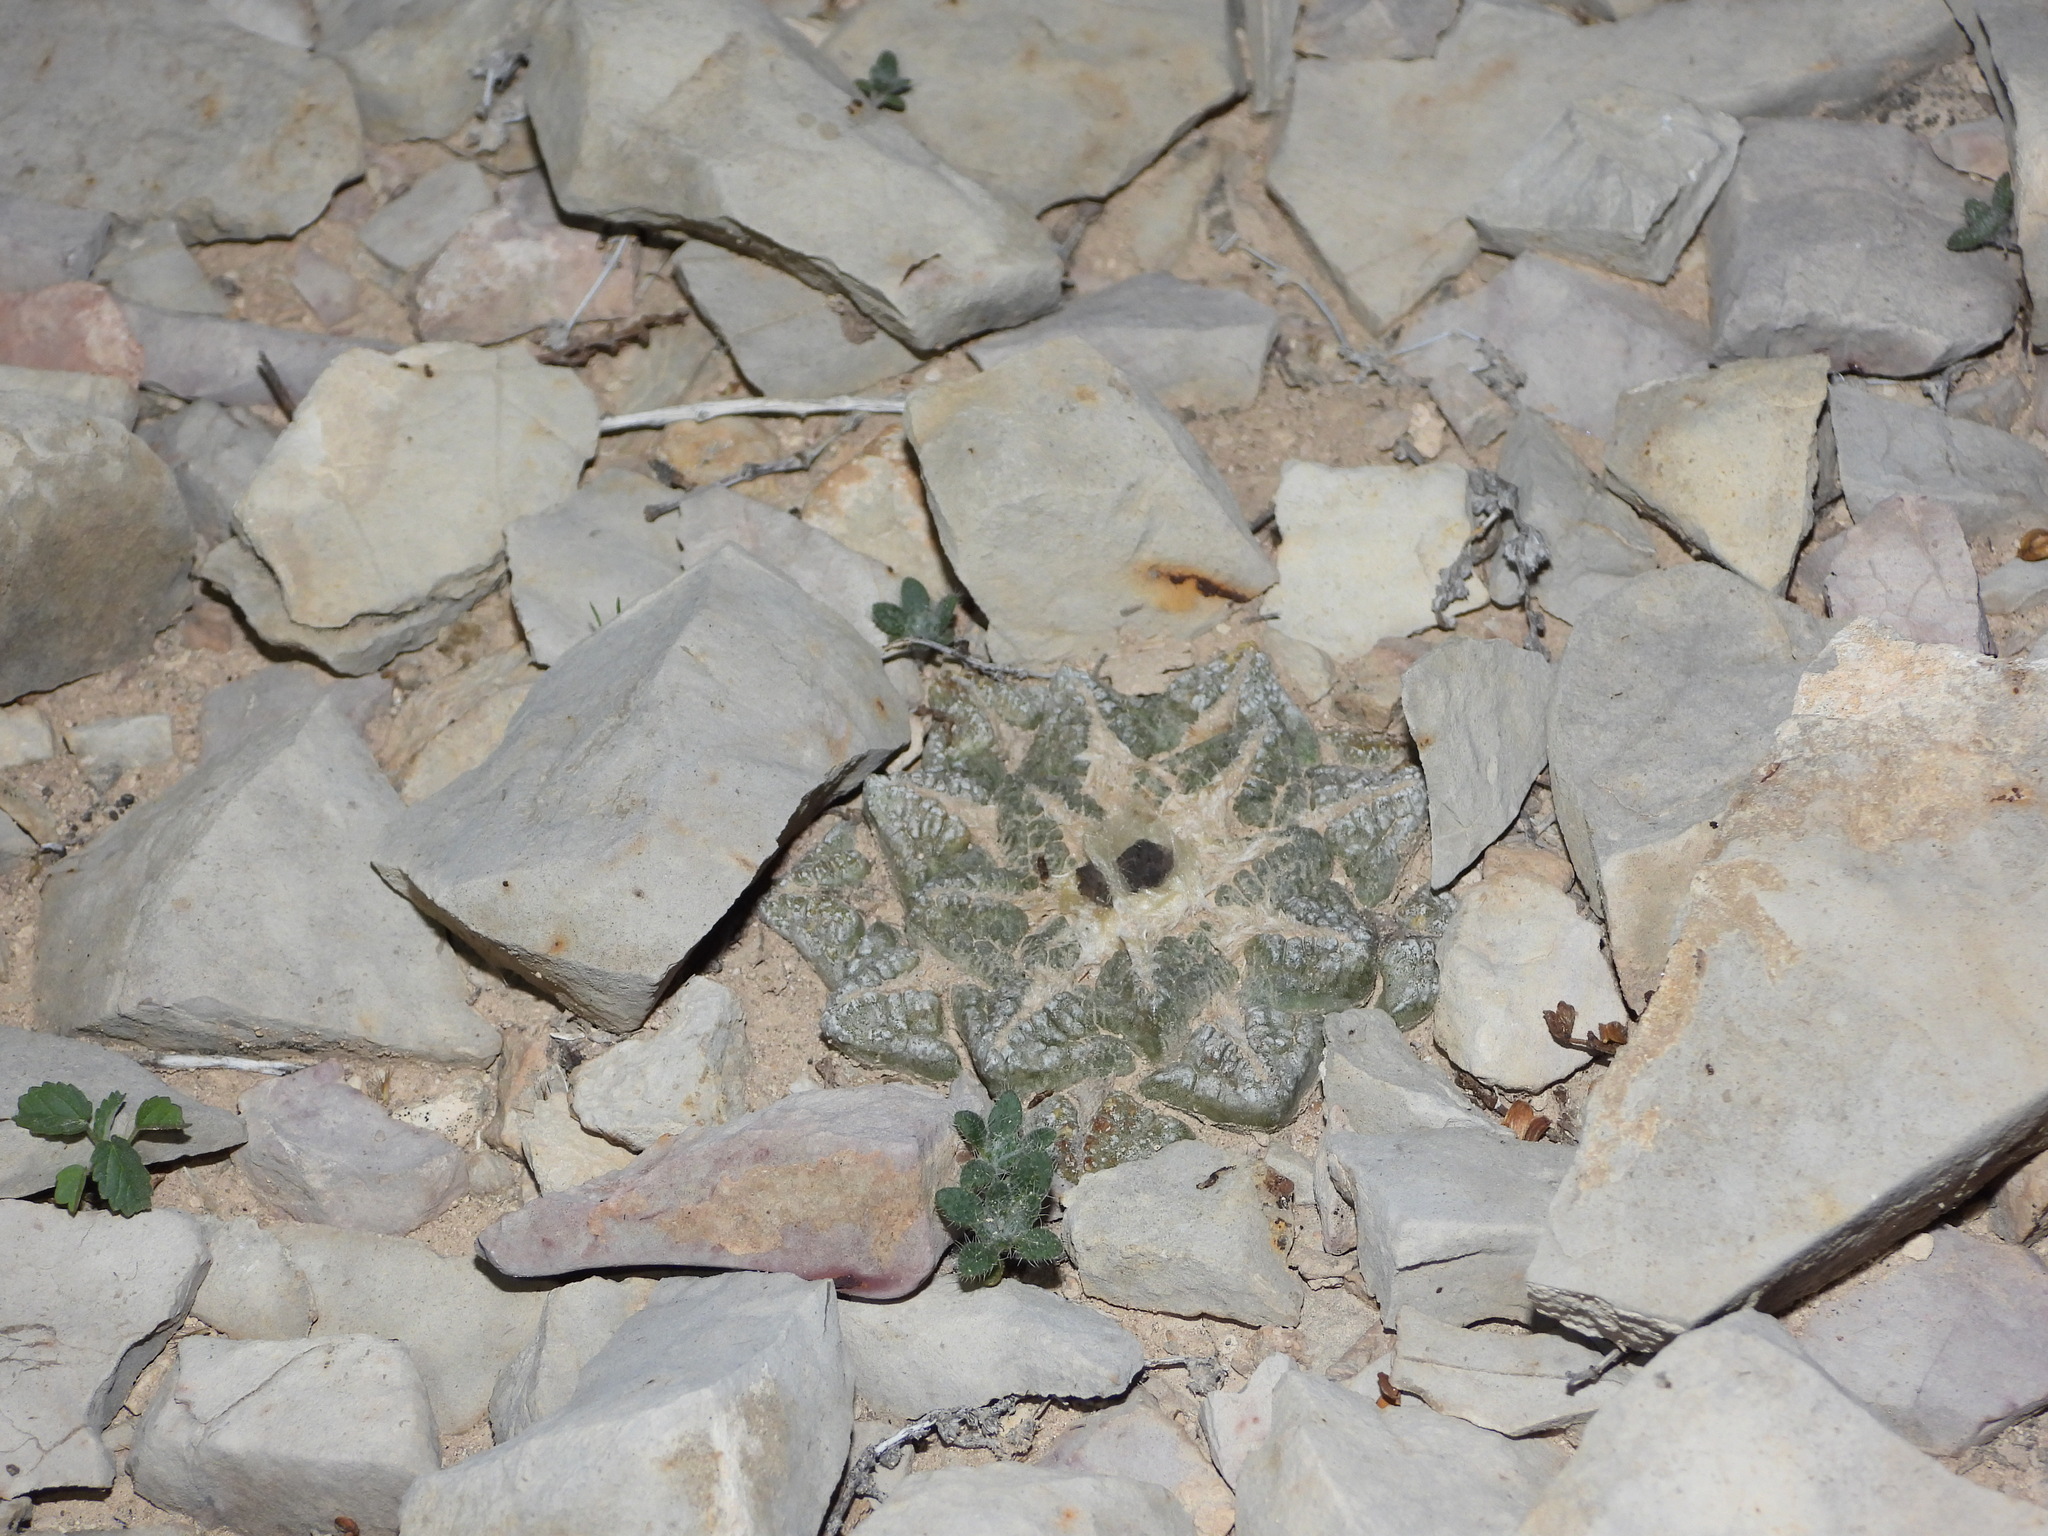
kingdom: Plantae
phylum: Tracheophyta
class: Magnoliopsida
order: Caryophyllales
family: Cactaceae
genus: Ariocarpus
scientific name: Ariocarpus fissuratus
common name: Chautle-living rock
